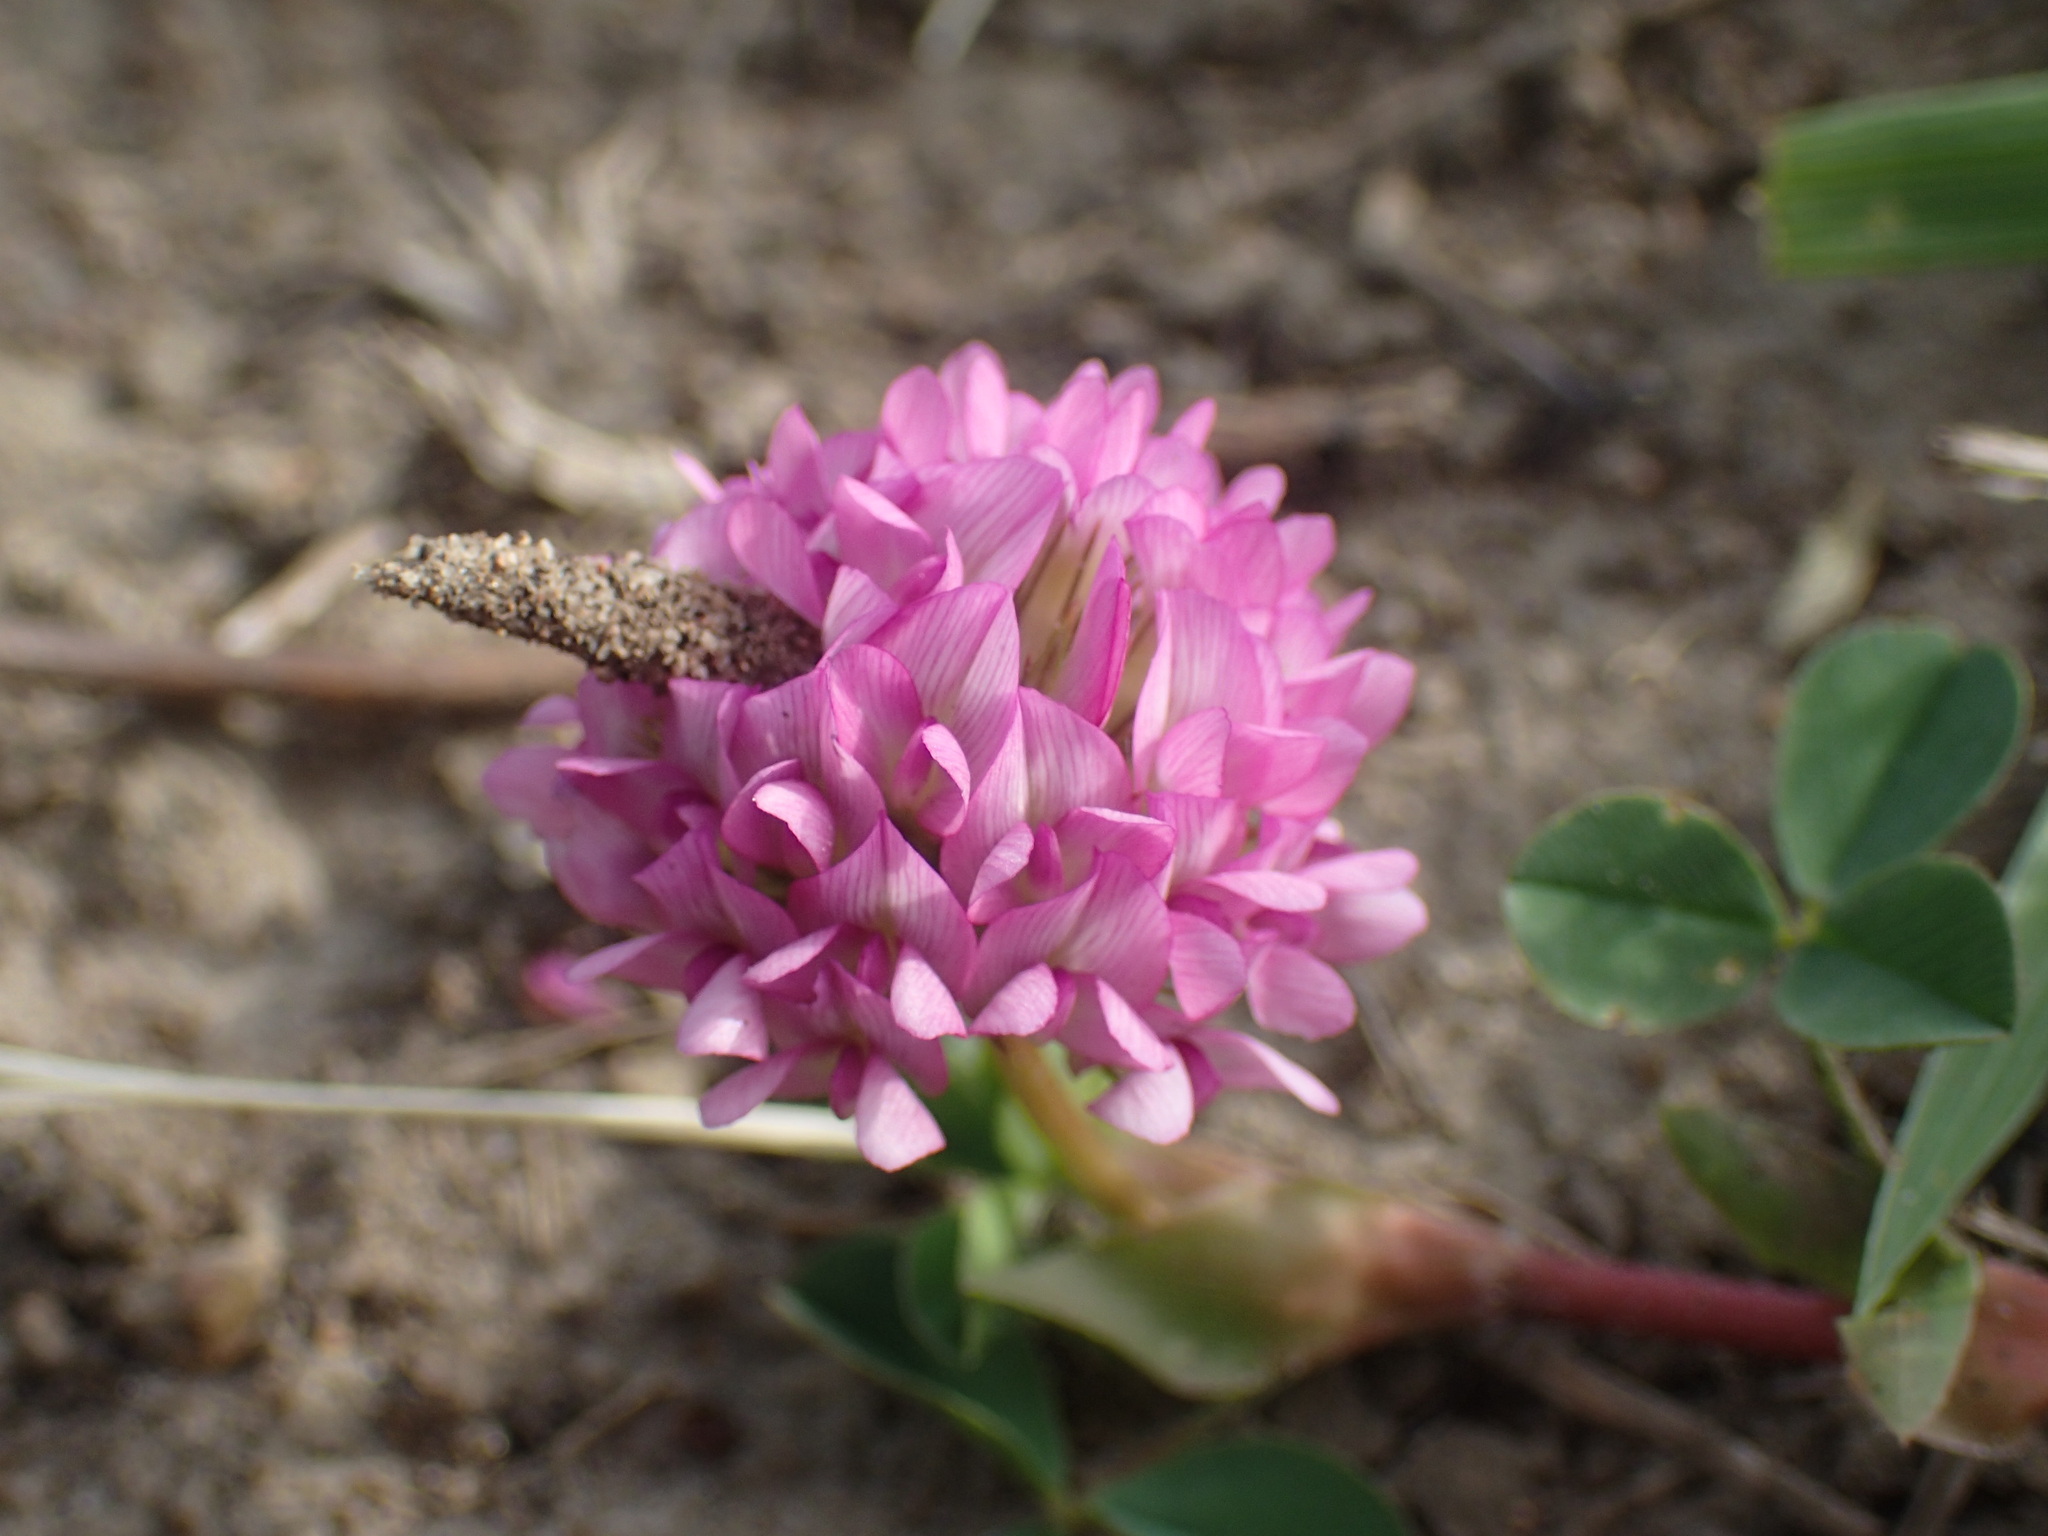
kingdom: Plantae
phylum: Tracheophyta
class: Magnoliopsida
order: Fabales
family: Fabaceae
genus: Trifolium
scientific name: Trifolium burchellianum
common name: Burchell's clover
